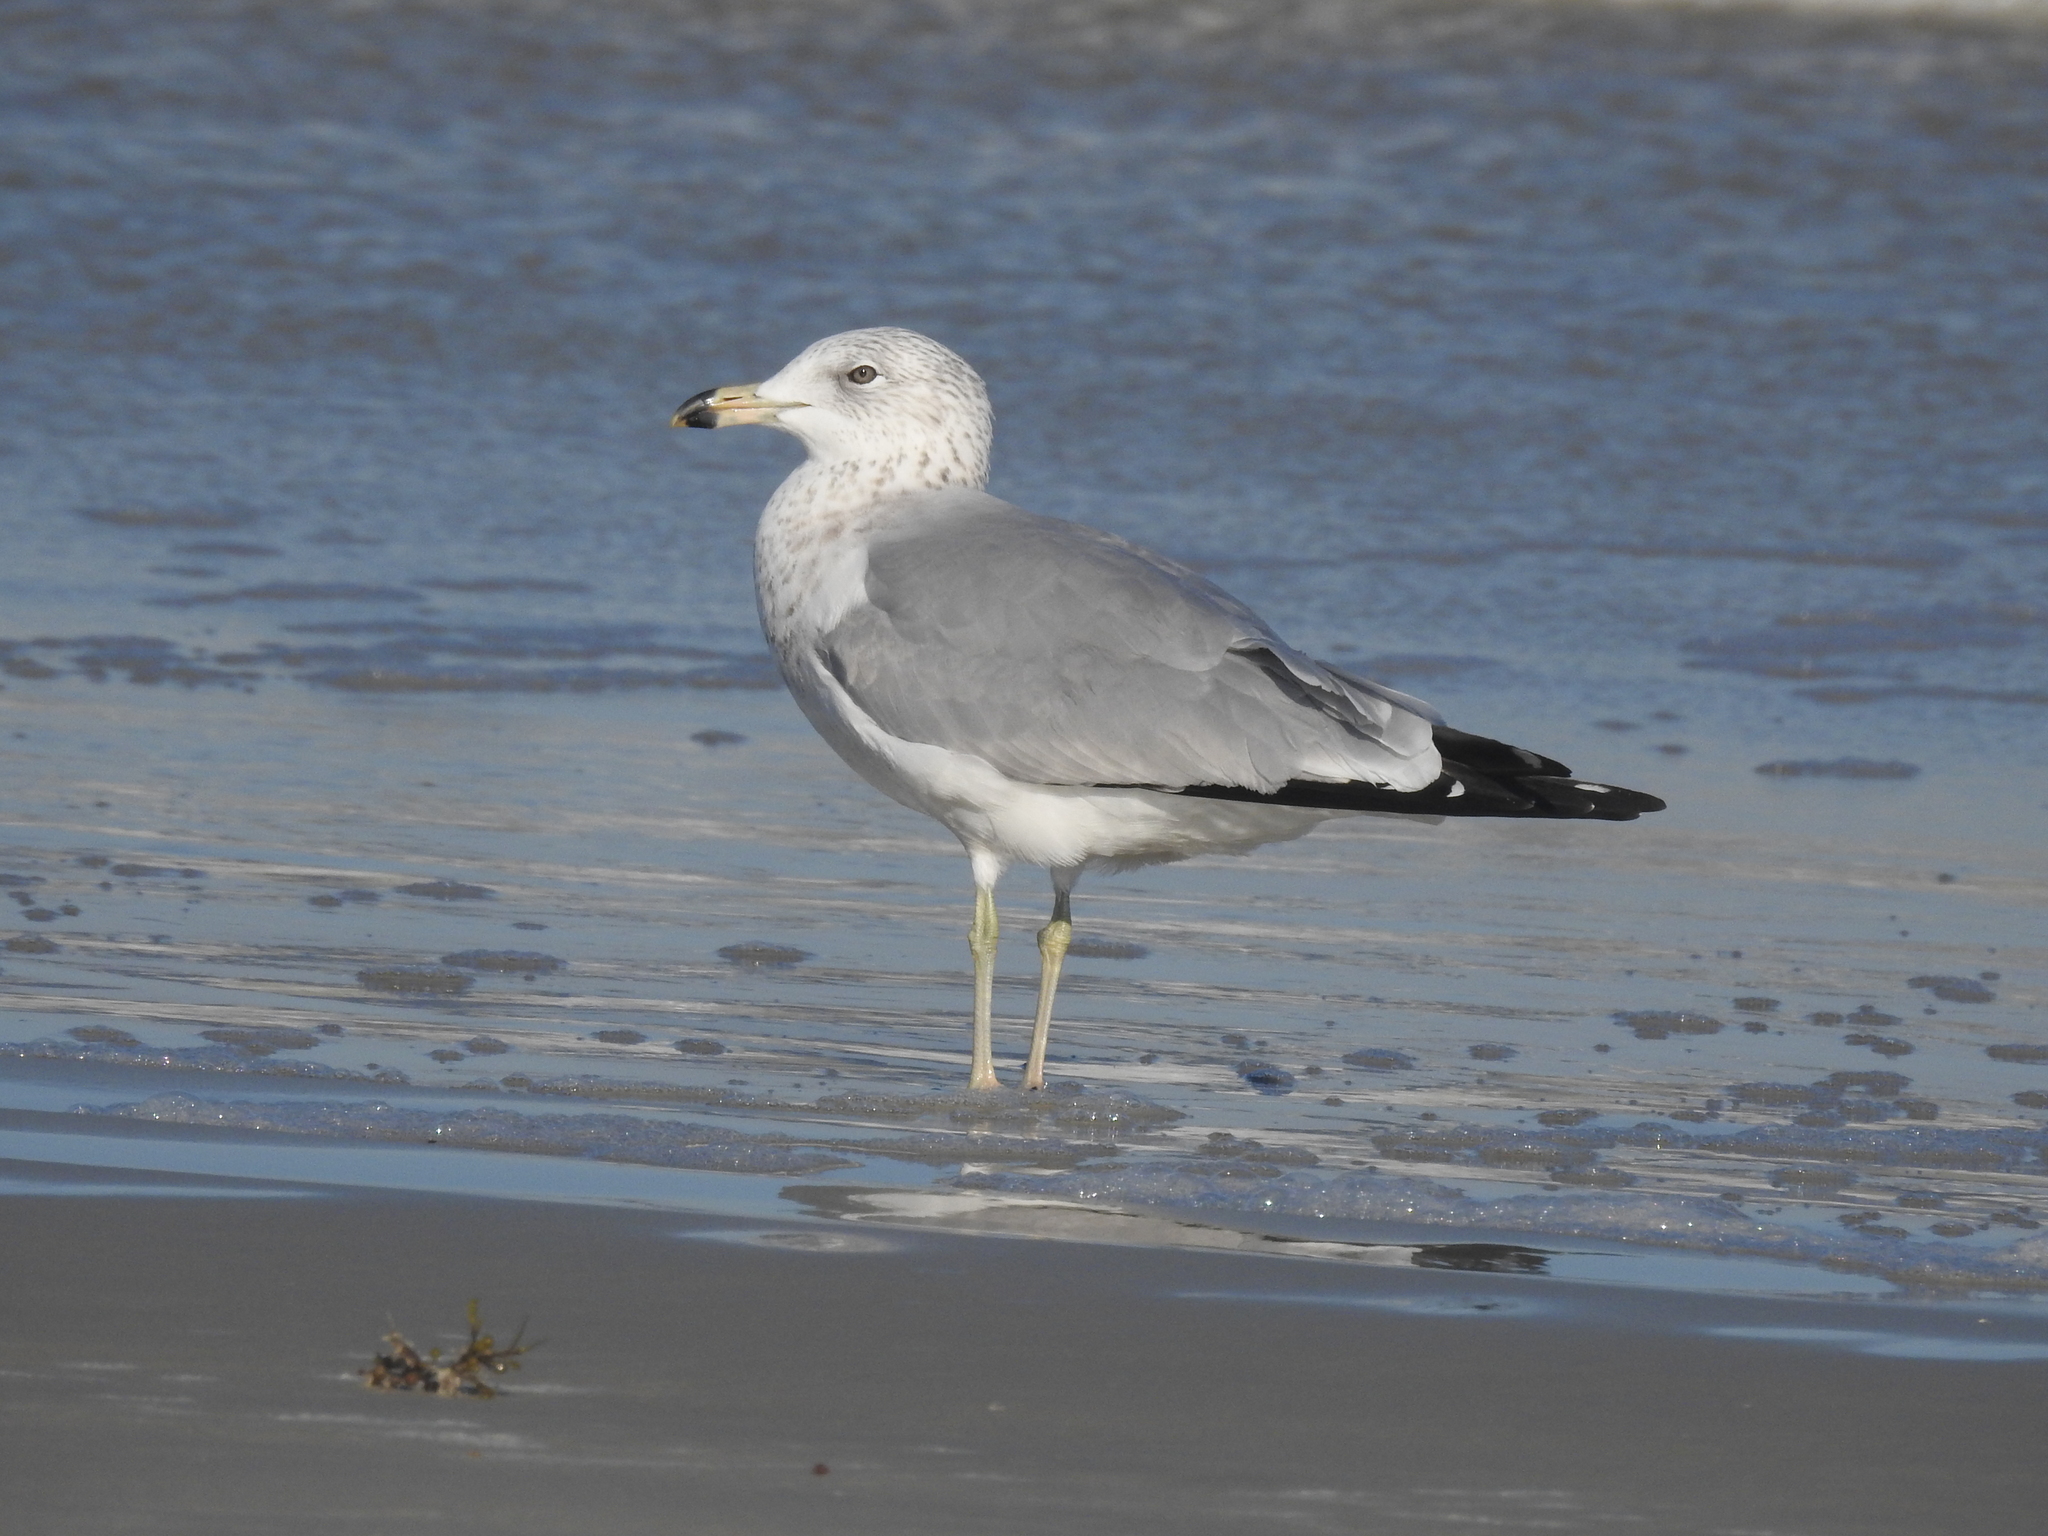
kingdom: Animalia
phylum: Chordata
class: Aves
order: Charadriiformes
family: Laridae
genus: Larus
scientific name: Larus delawarensis
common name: Ring-billed gull
